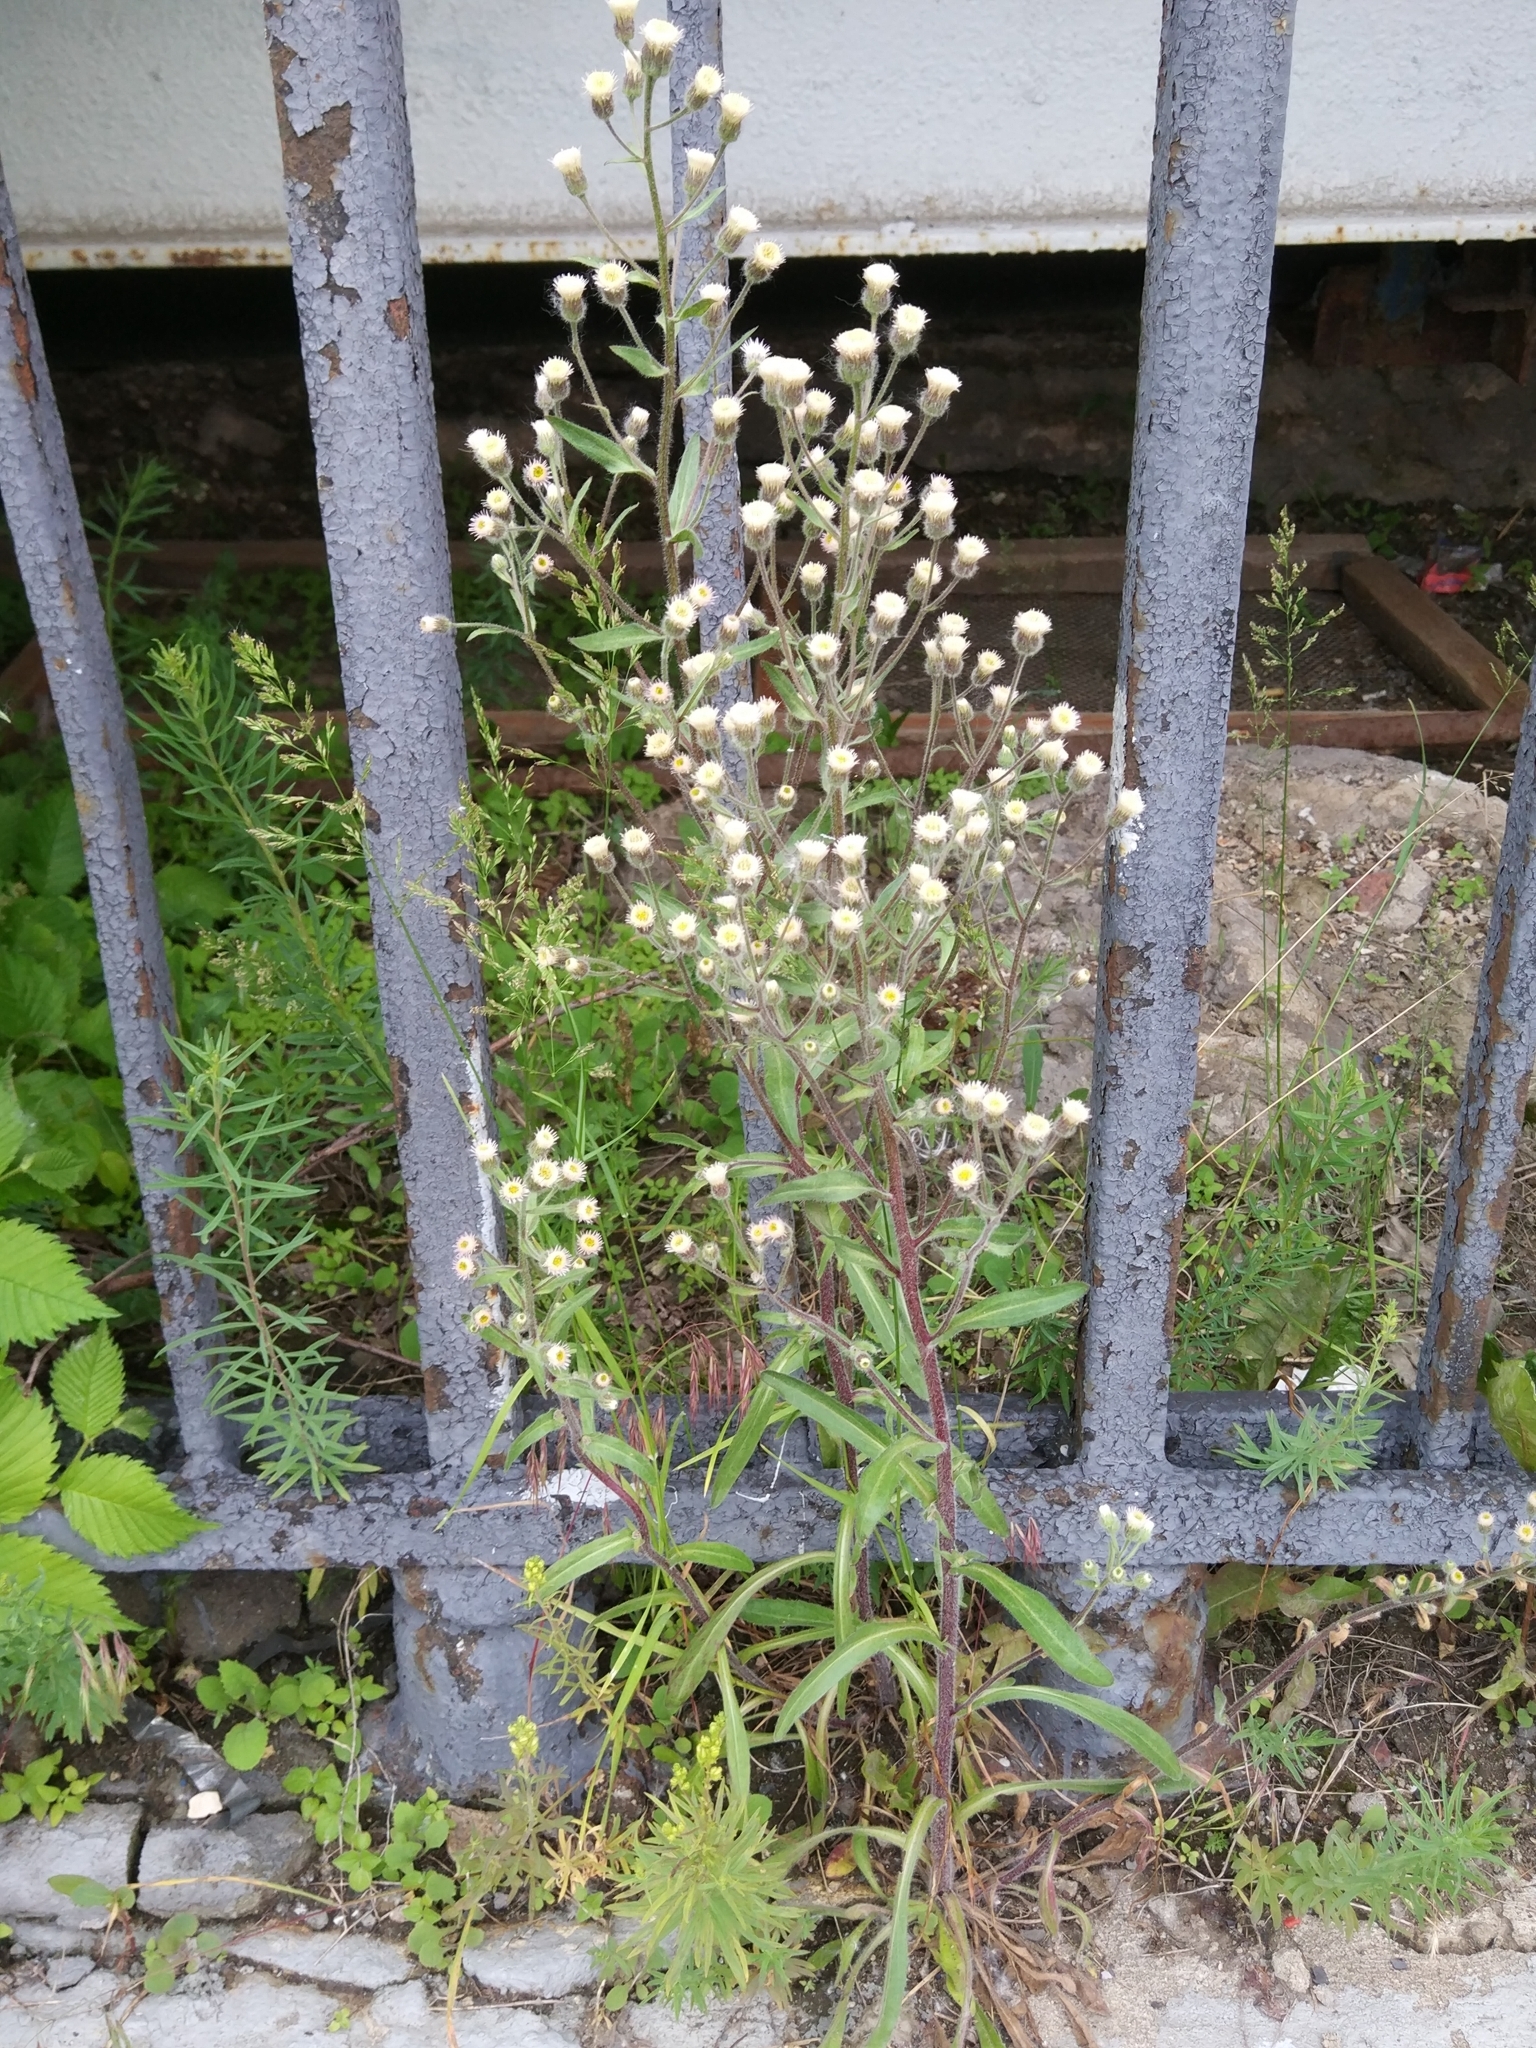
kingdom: Plantae
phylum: Tracheophyta
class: Magnoliopsida
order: Asterales
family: Asteraceae
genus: Erigeron
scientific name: Erigeron acris
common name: Blue fleabane
